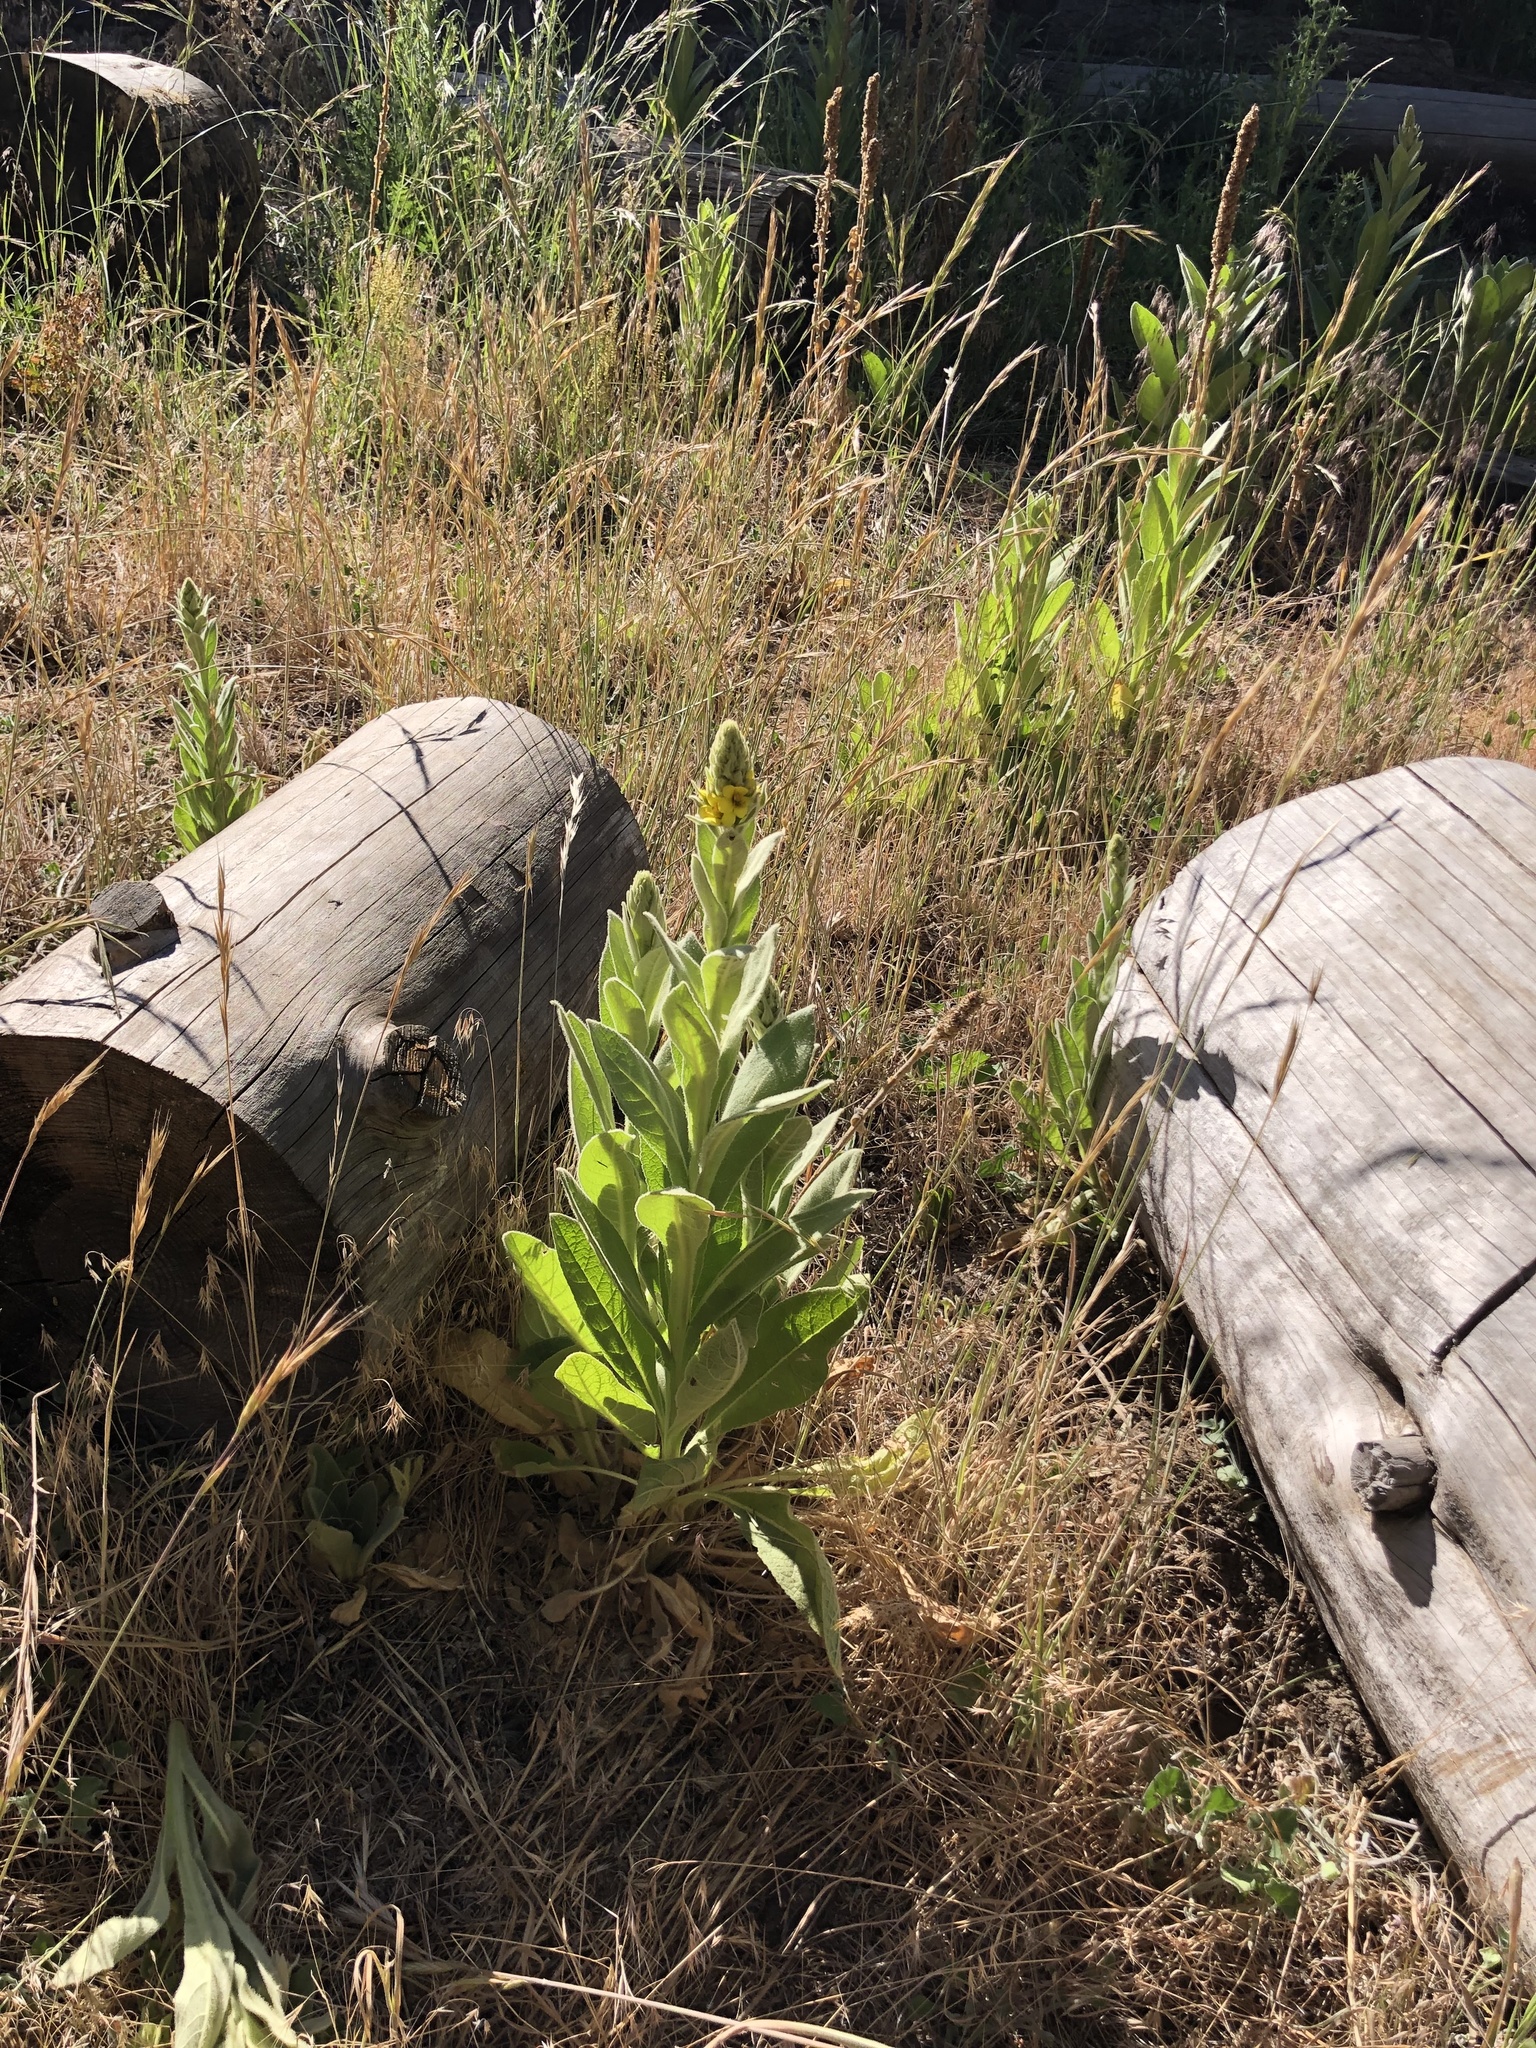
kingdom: Plantae
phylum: Tracheophyta
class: Magnoliopsida
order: Lamiales
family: Scrophulariaceae
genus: Verbascum
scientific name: Verbascum thapsus
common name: Common mullein
